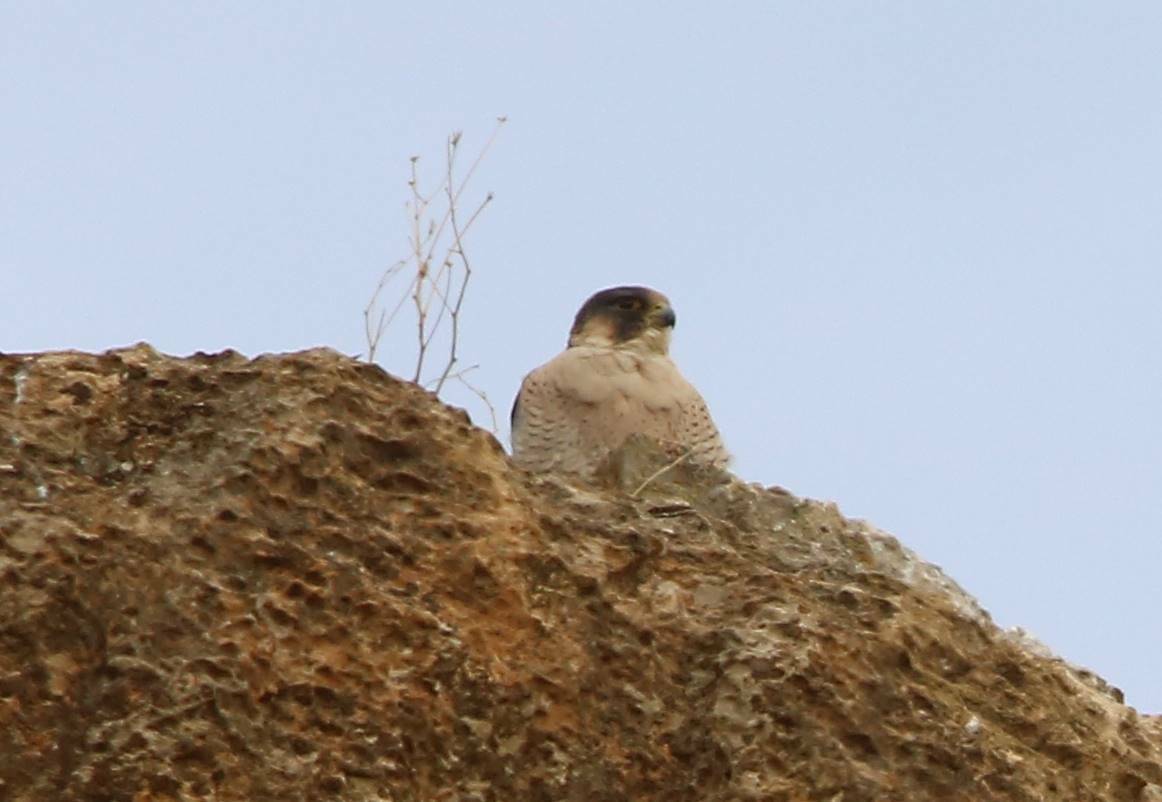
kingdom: Animalia
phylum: Chordata
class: Aves
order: Falconiformes
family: Falconidae
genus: Falco
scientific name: Falco peregrinus
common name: Peregrine falcon
